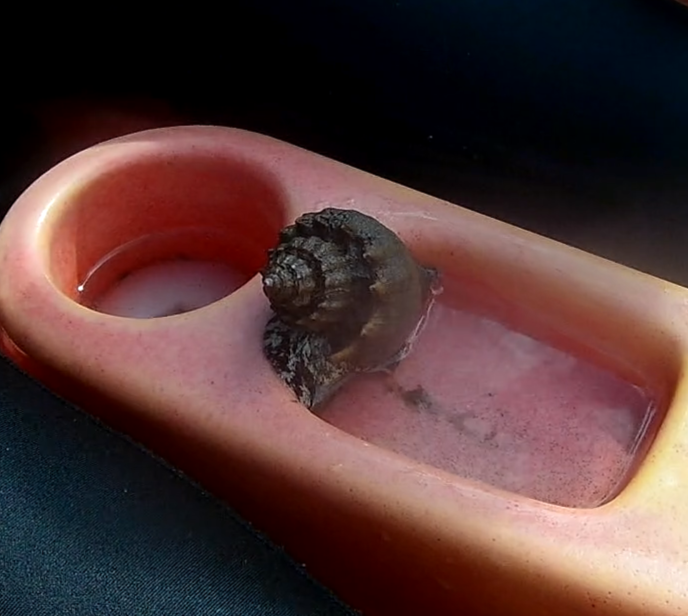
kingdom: Animalia
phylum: Mollusca
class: Gastropoda
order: Neogastropoda
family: Melongenidae
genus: Melongena
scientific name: Melongena corona
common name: American crown conch
